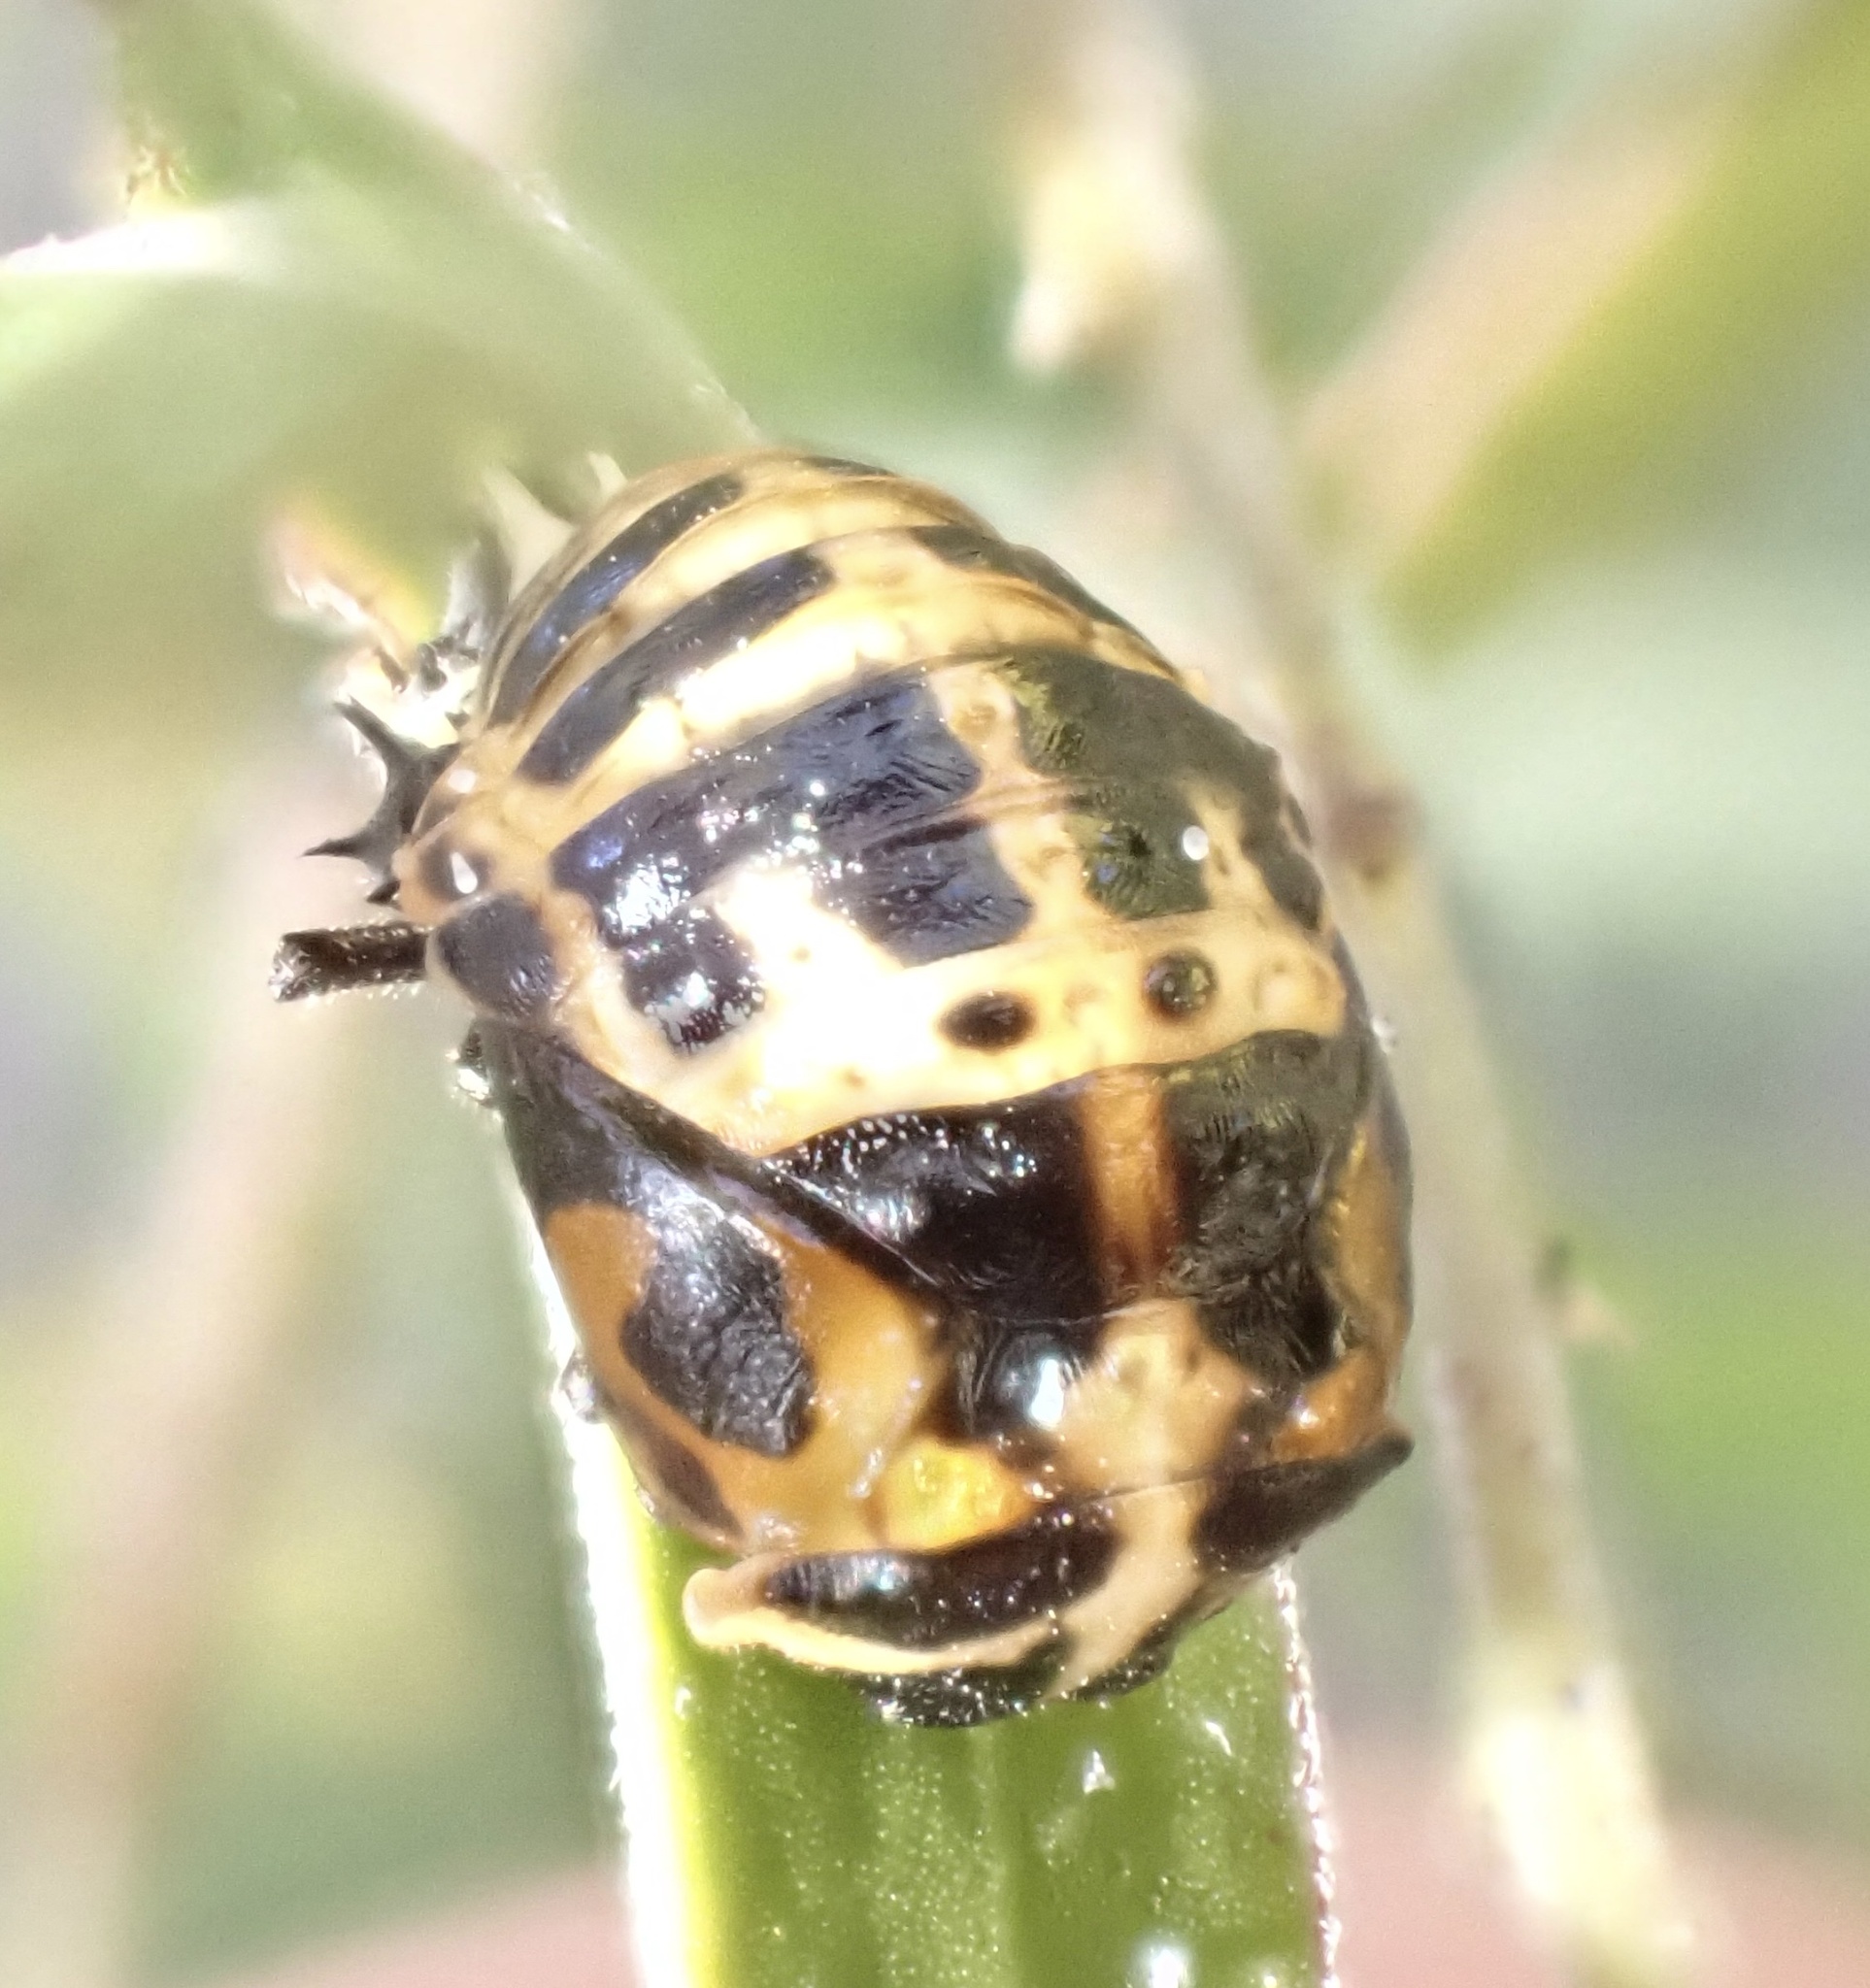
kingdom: Animalia
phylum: Arthropoda
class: Insecta
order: Coleoptera
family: Coccinellidae
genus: Harmonia
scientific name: Harmonia conformis
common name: Common spotted ladybird beetle
